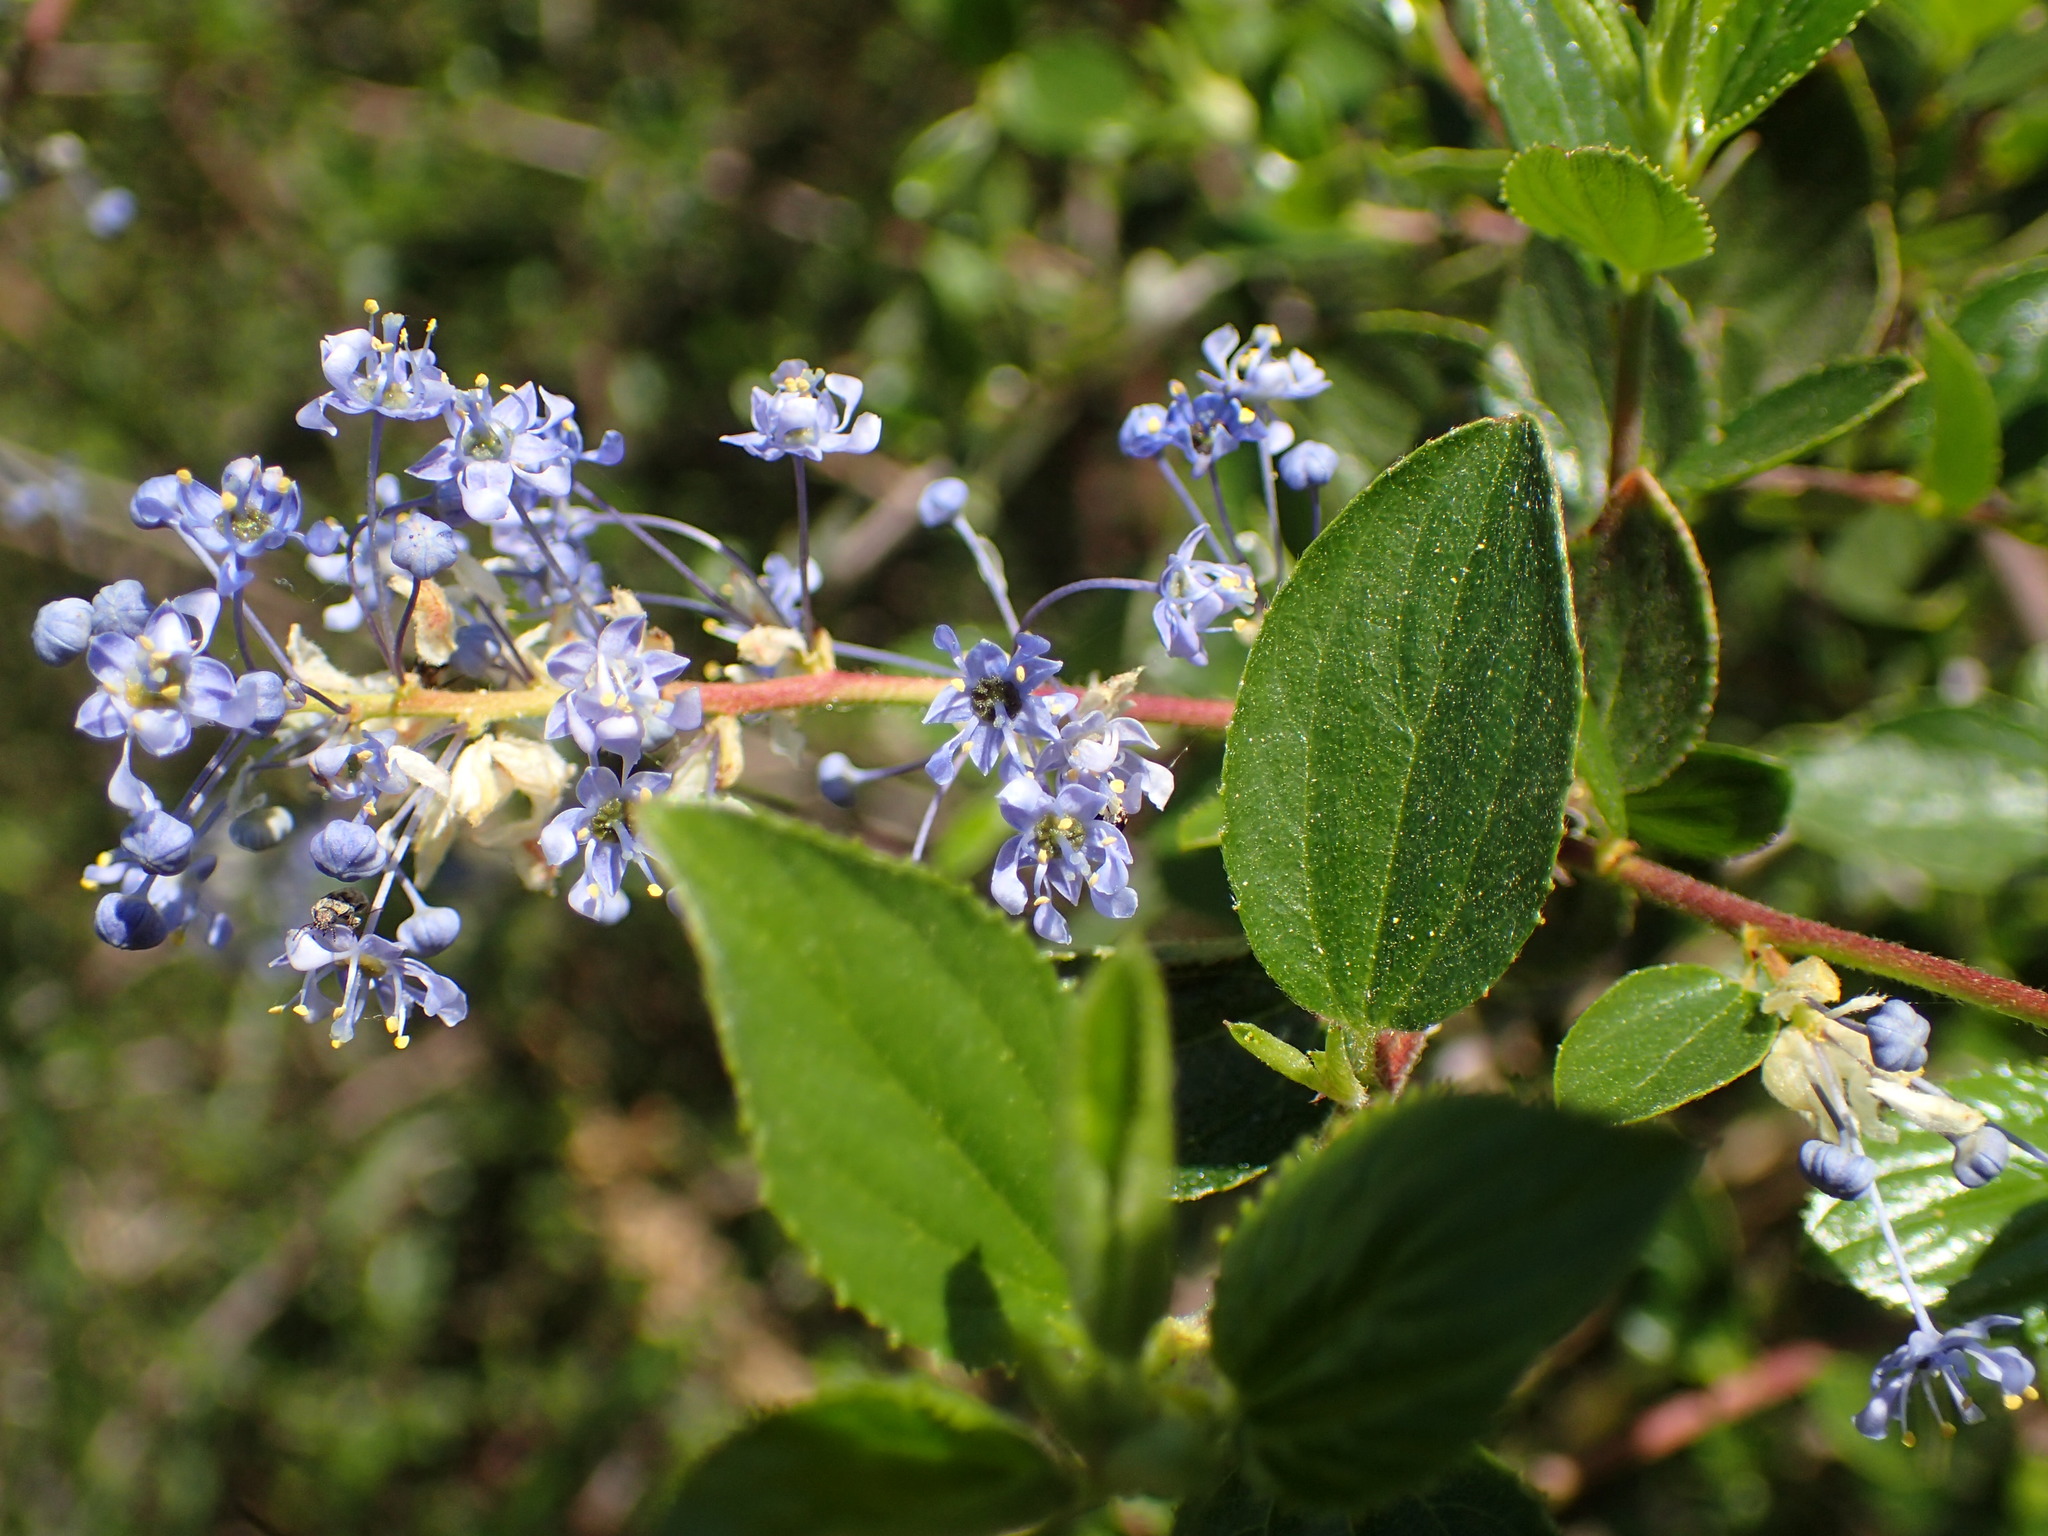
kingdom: Plantae
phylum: Tracheophyta
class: Magnoliopsida
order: Rosales
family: Rhamnaceae
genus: Ceanothus
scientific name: Ceanothus oliganthus
